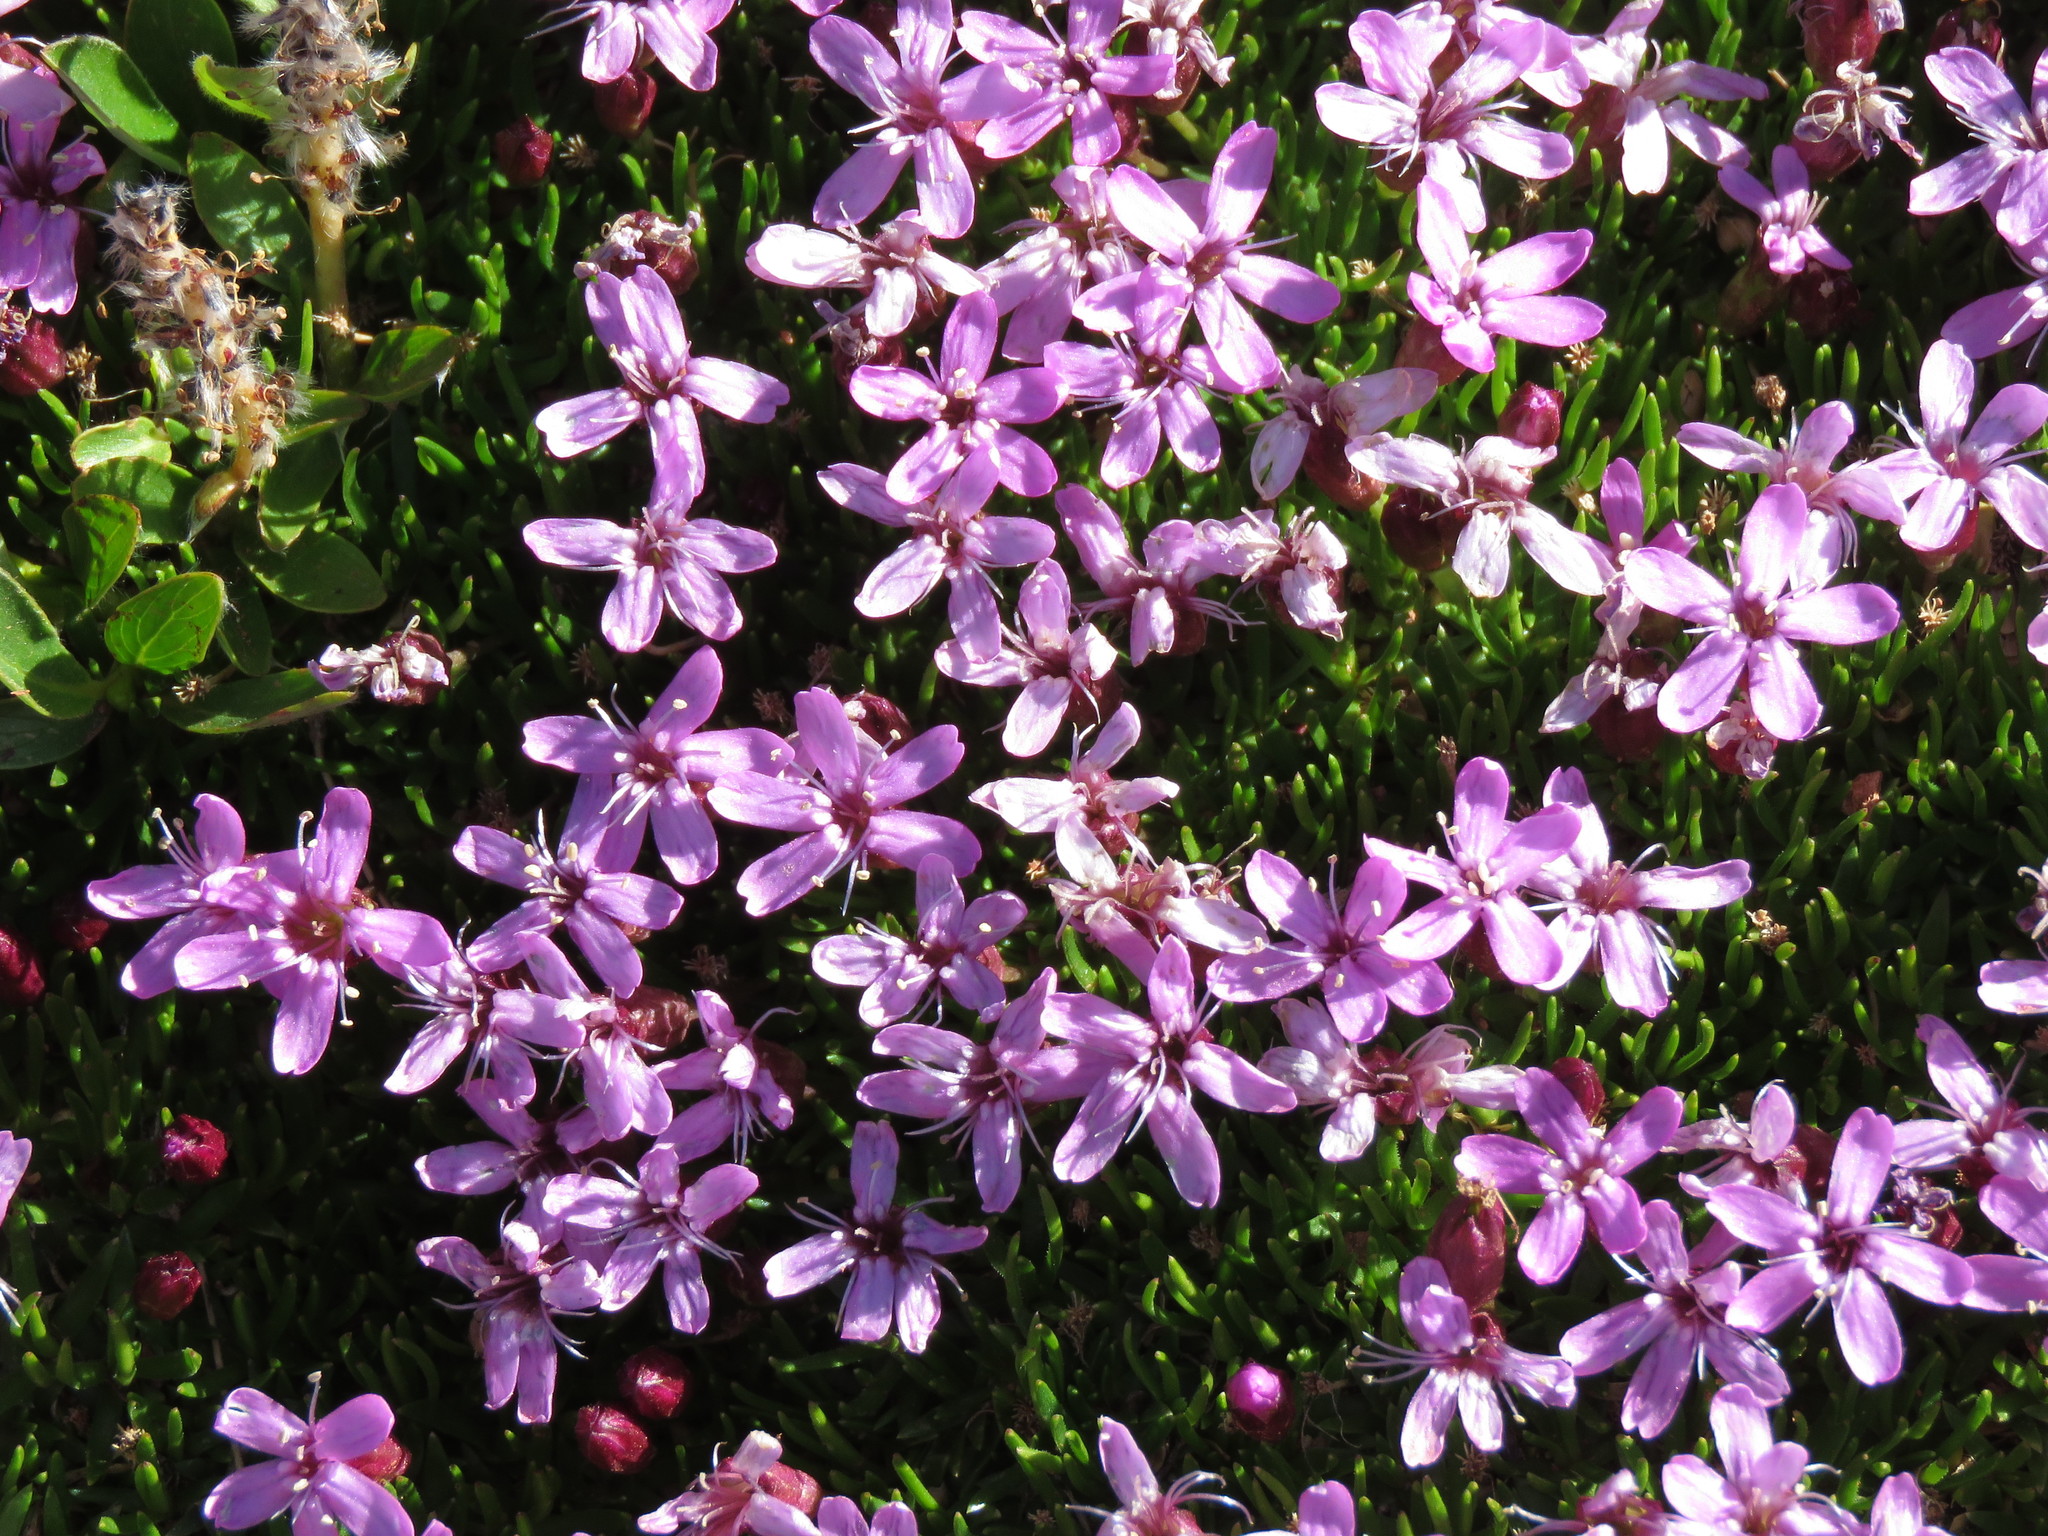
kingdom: Plantae
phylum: Tracheophyta
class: Magnoliopsida
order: Caryophyllales
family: Caryophyllaceae
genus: Silene
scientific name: Silene acaulis
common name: Moss campion
